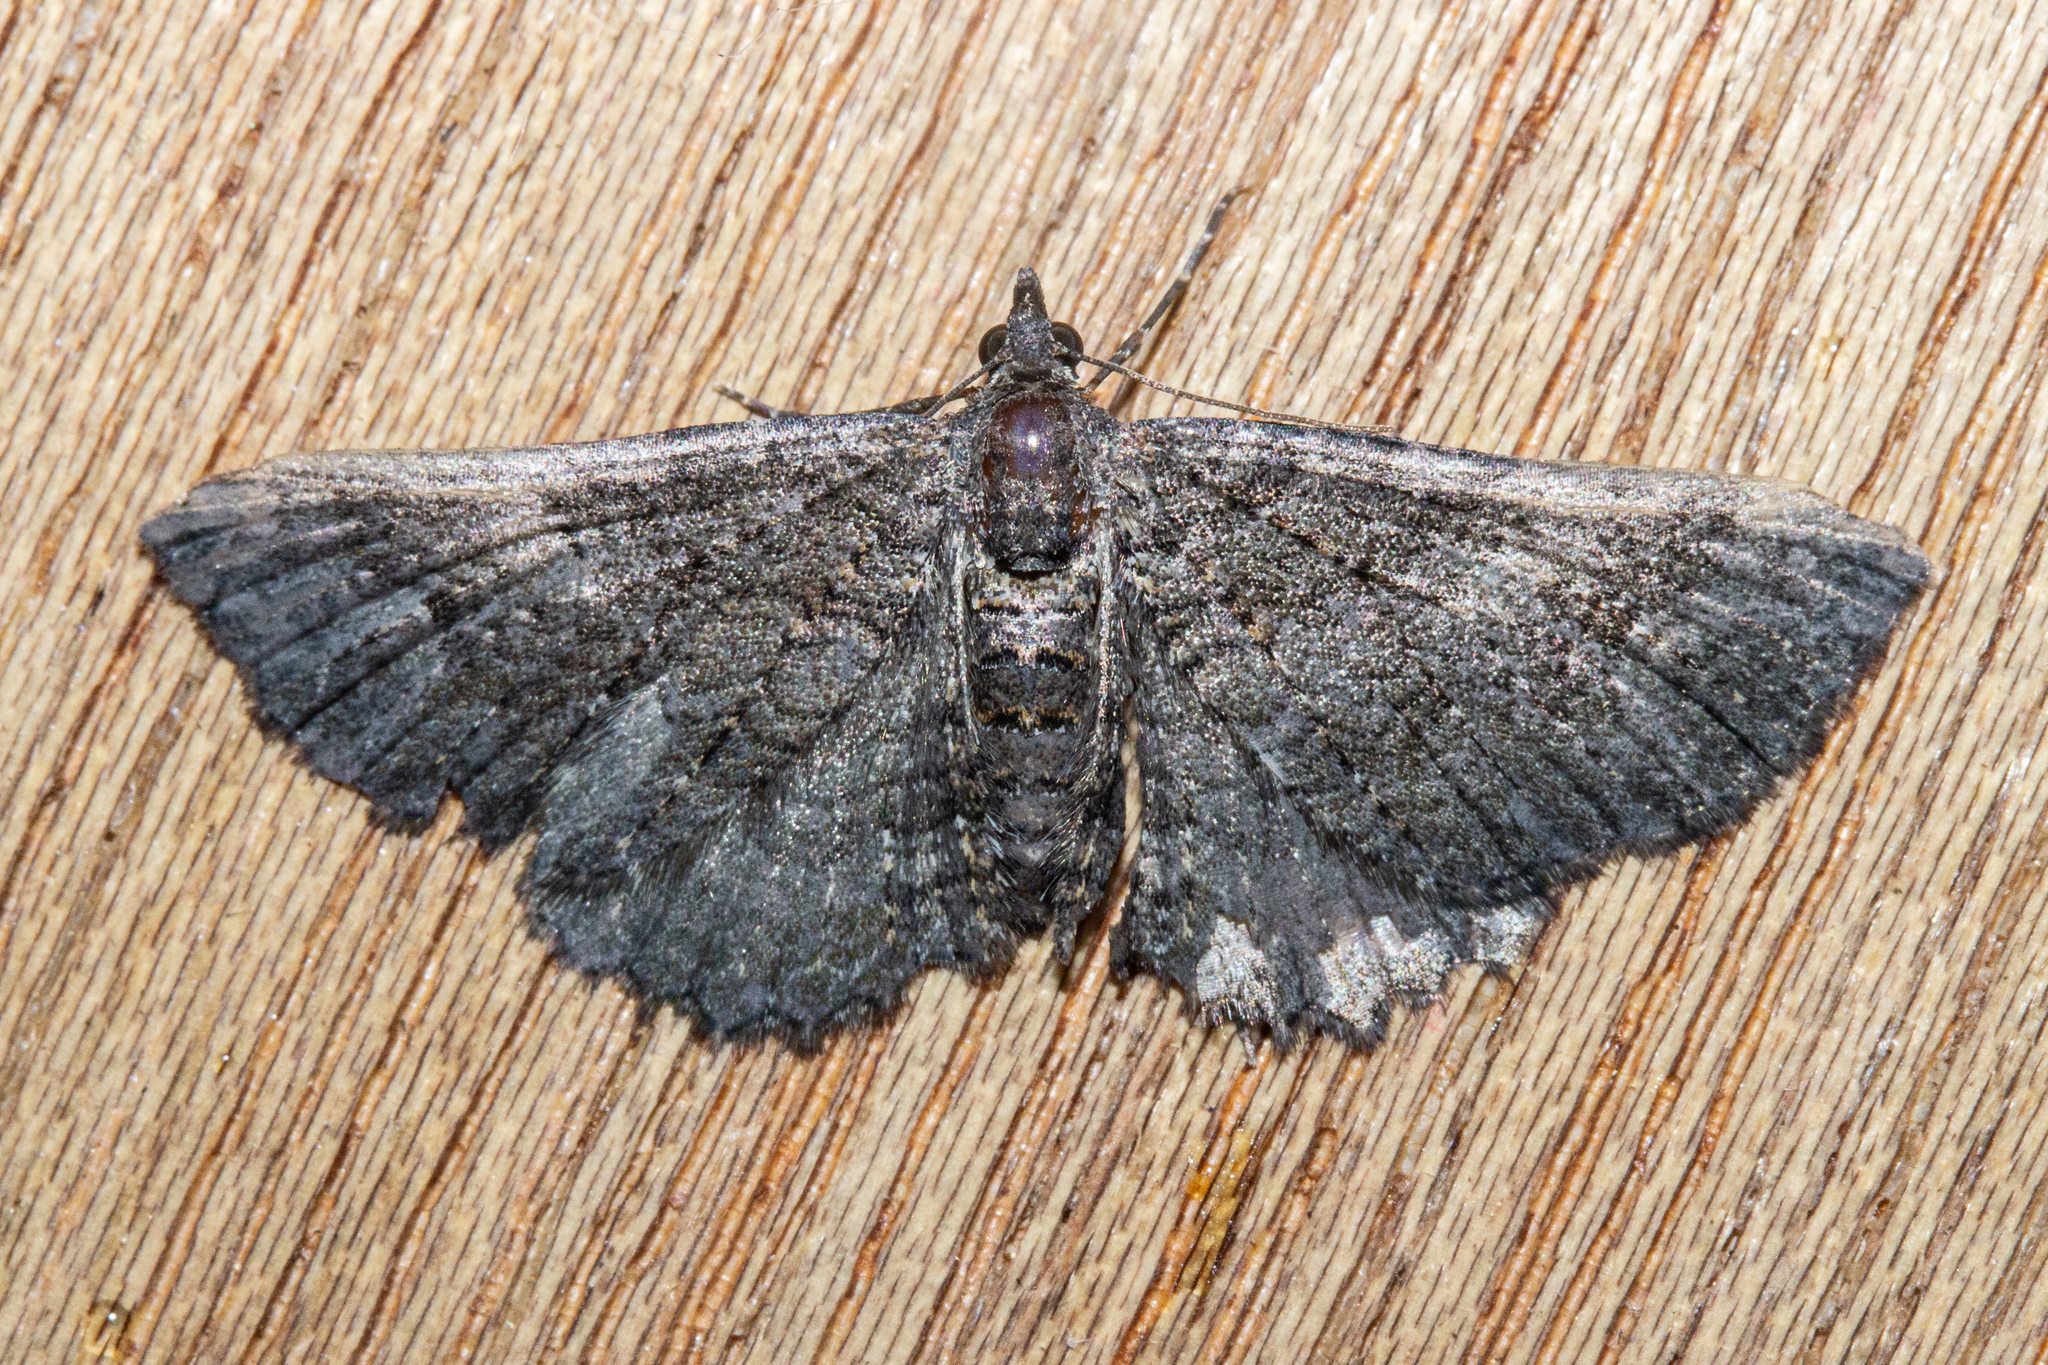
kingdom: Animalia
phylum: Arthropoda
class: Insecta
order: Lepidoptera
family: Geometridae
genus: Horisme
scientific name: Horisme suppressaria
